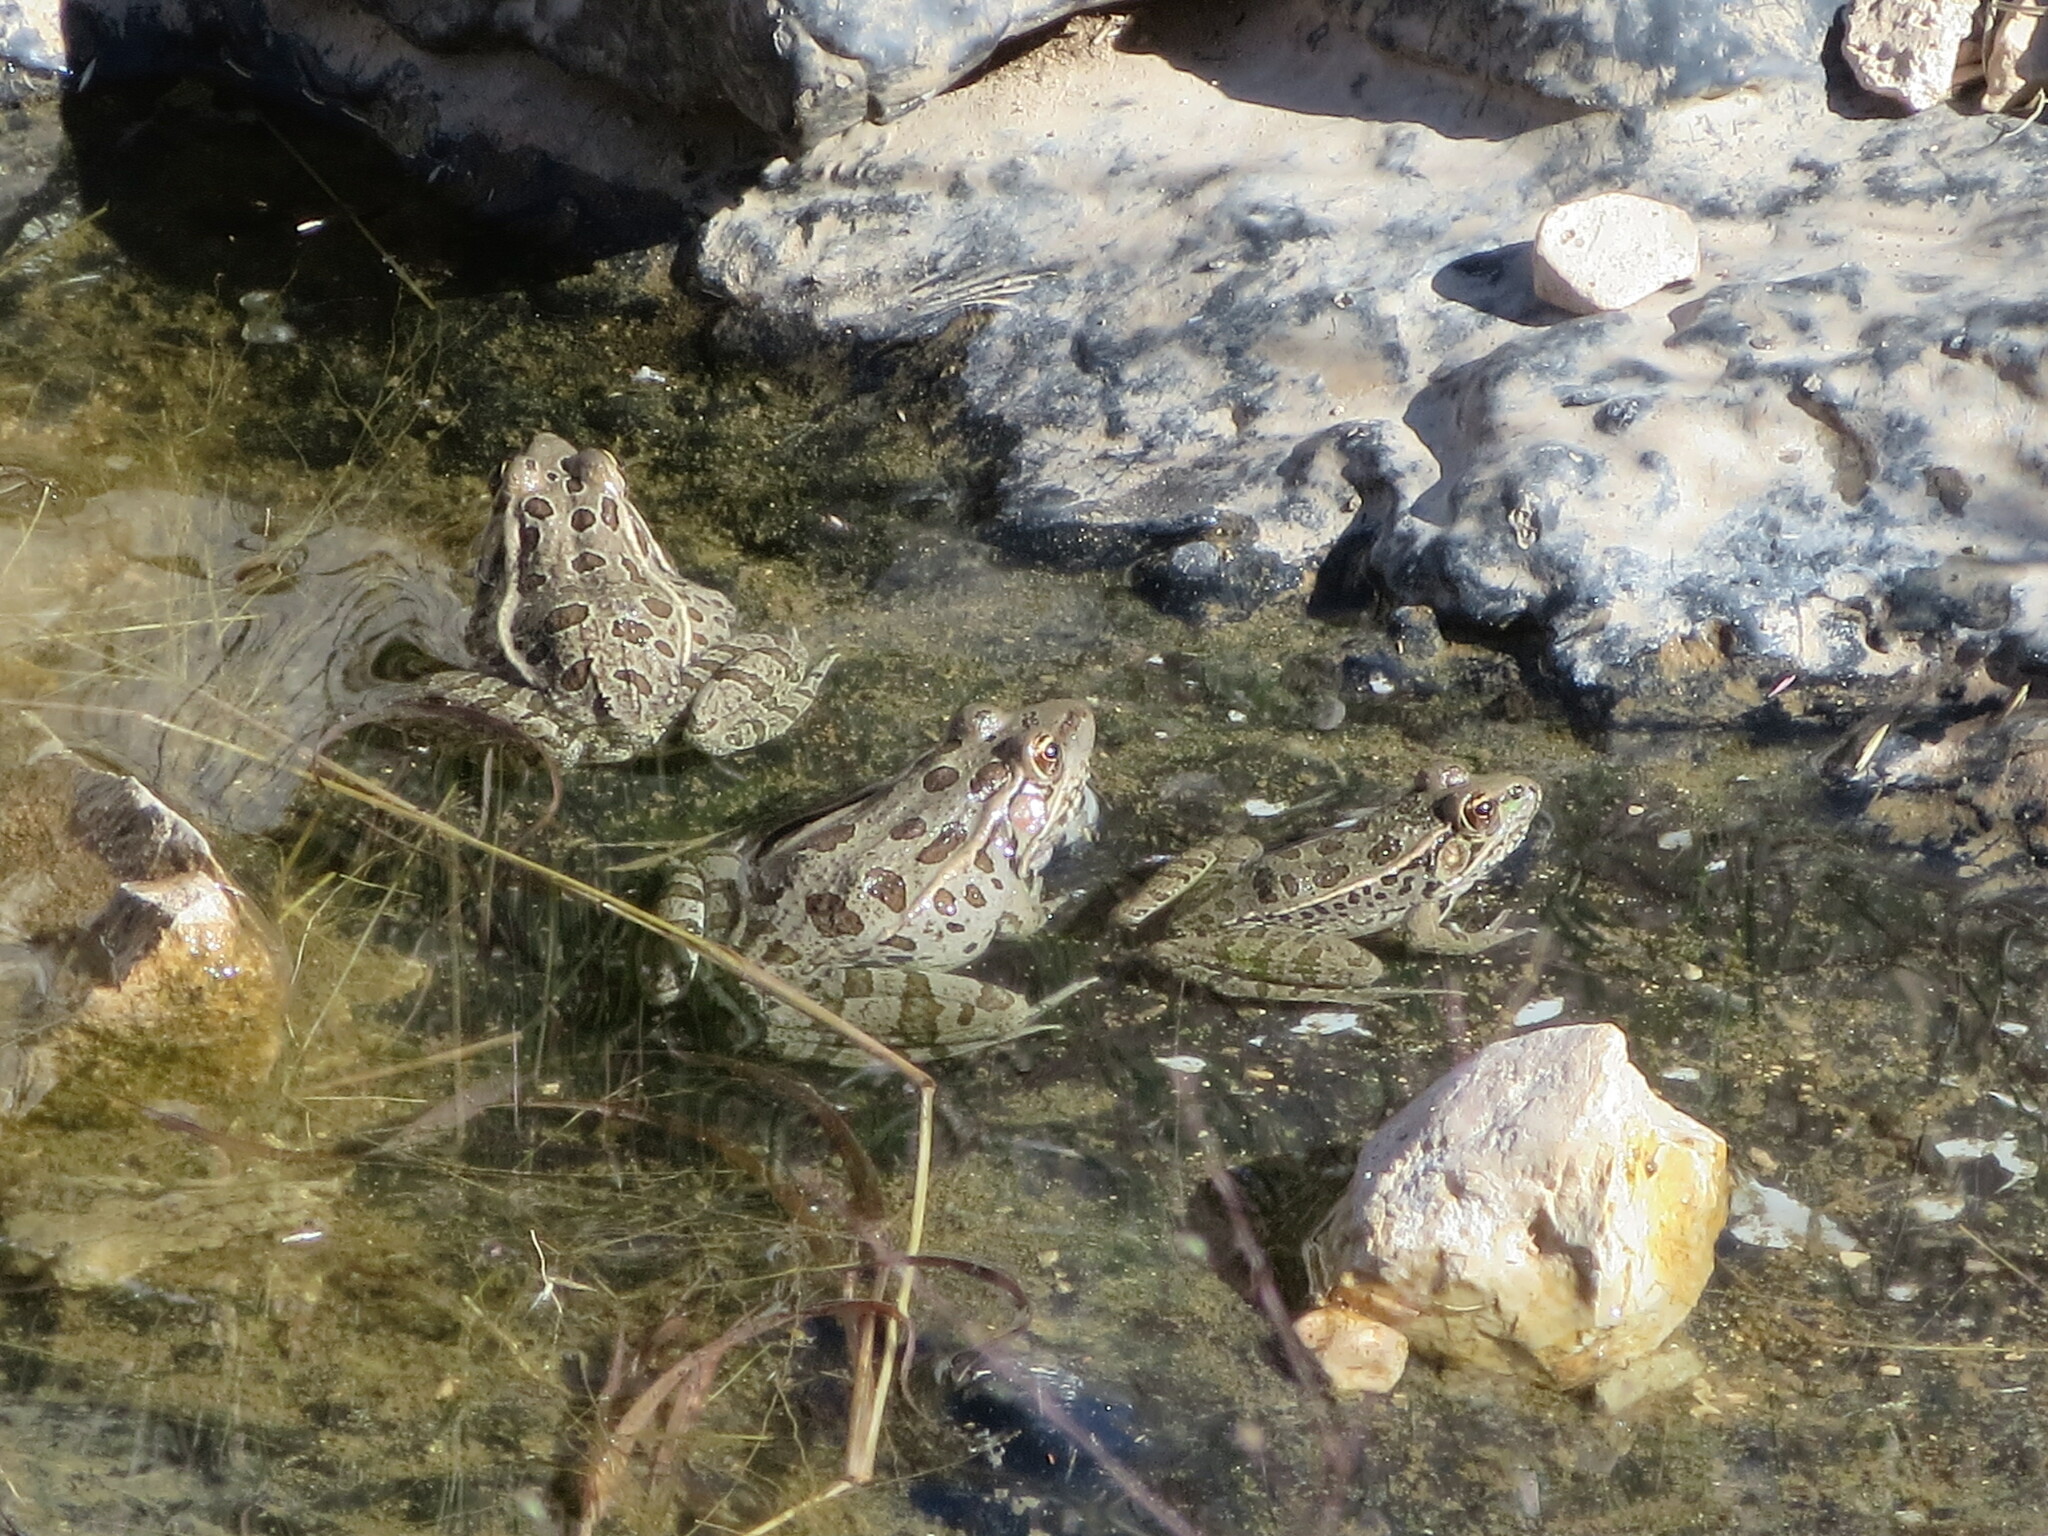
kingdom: Animalia
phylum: Chordata
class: Amphibia
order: Anura
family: Ranidae
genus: Lithobates
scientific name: Lithobates berlandieri
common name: Rio grande leopard frog
